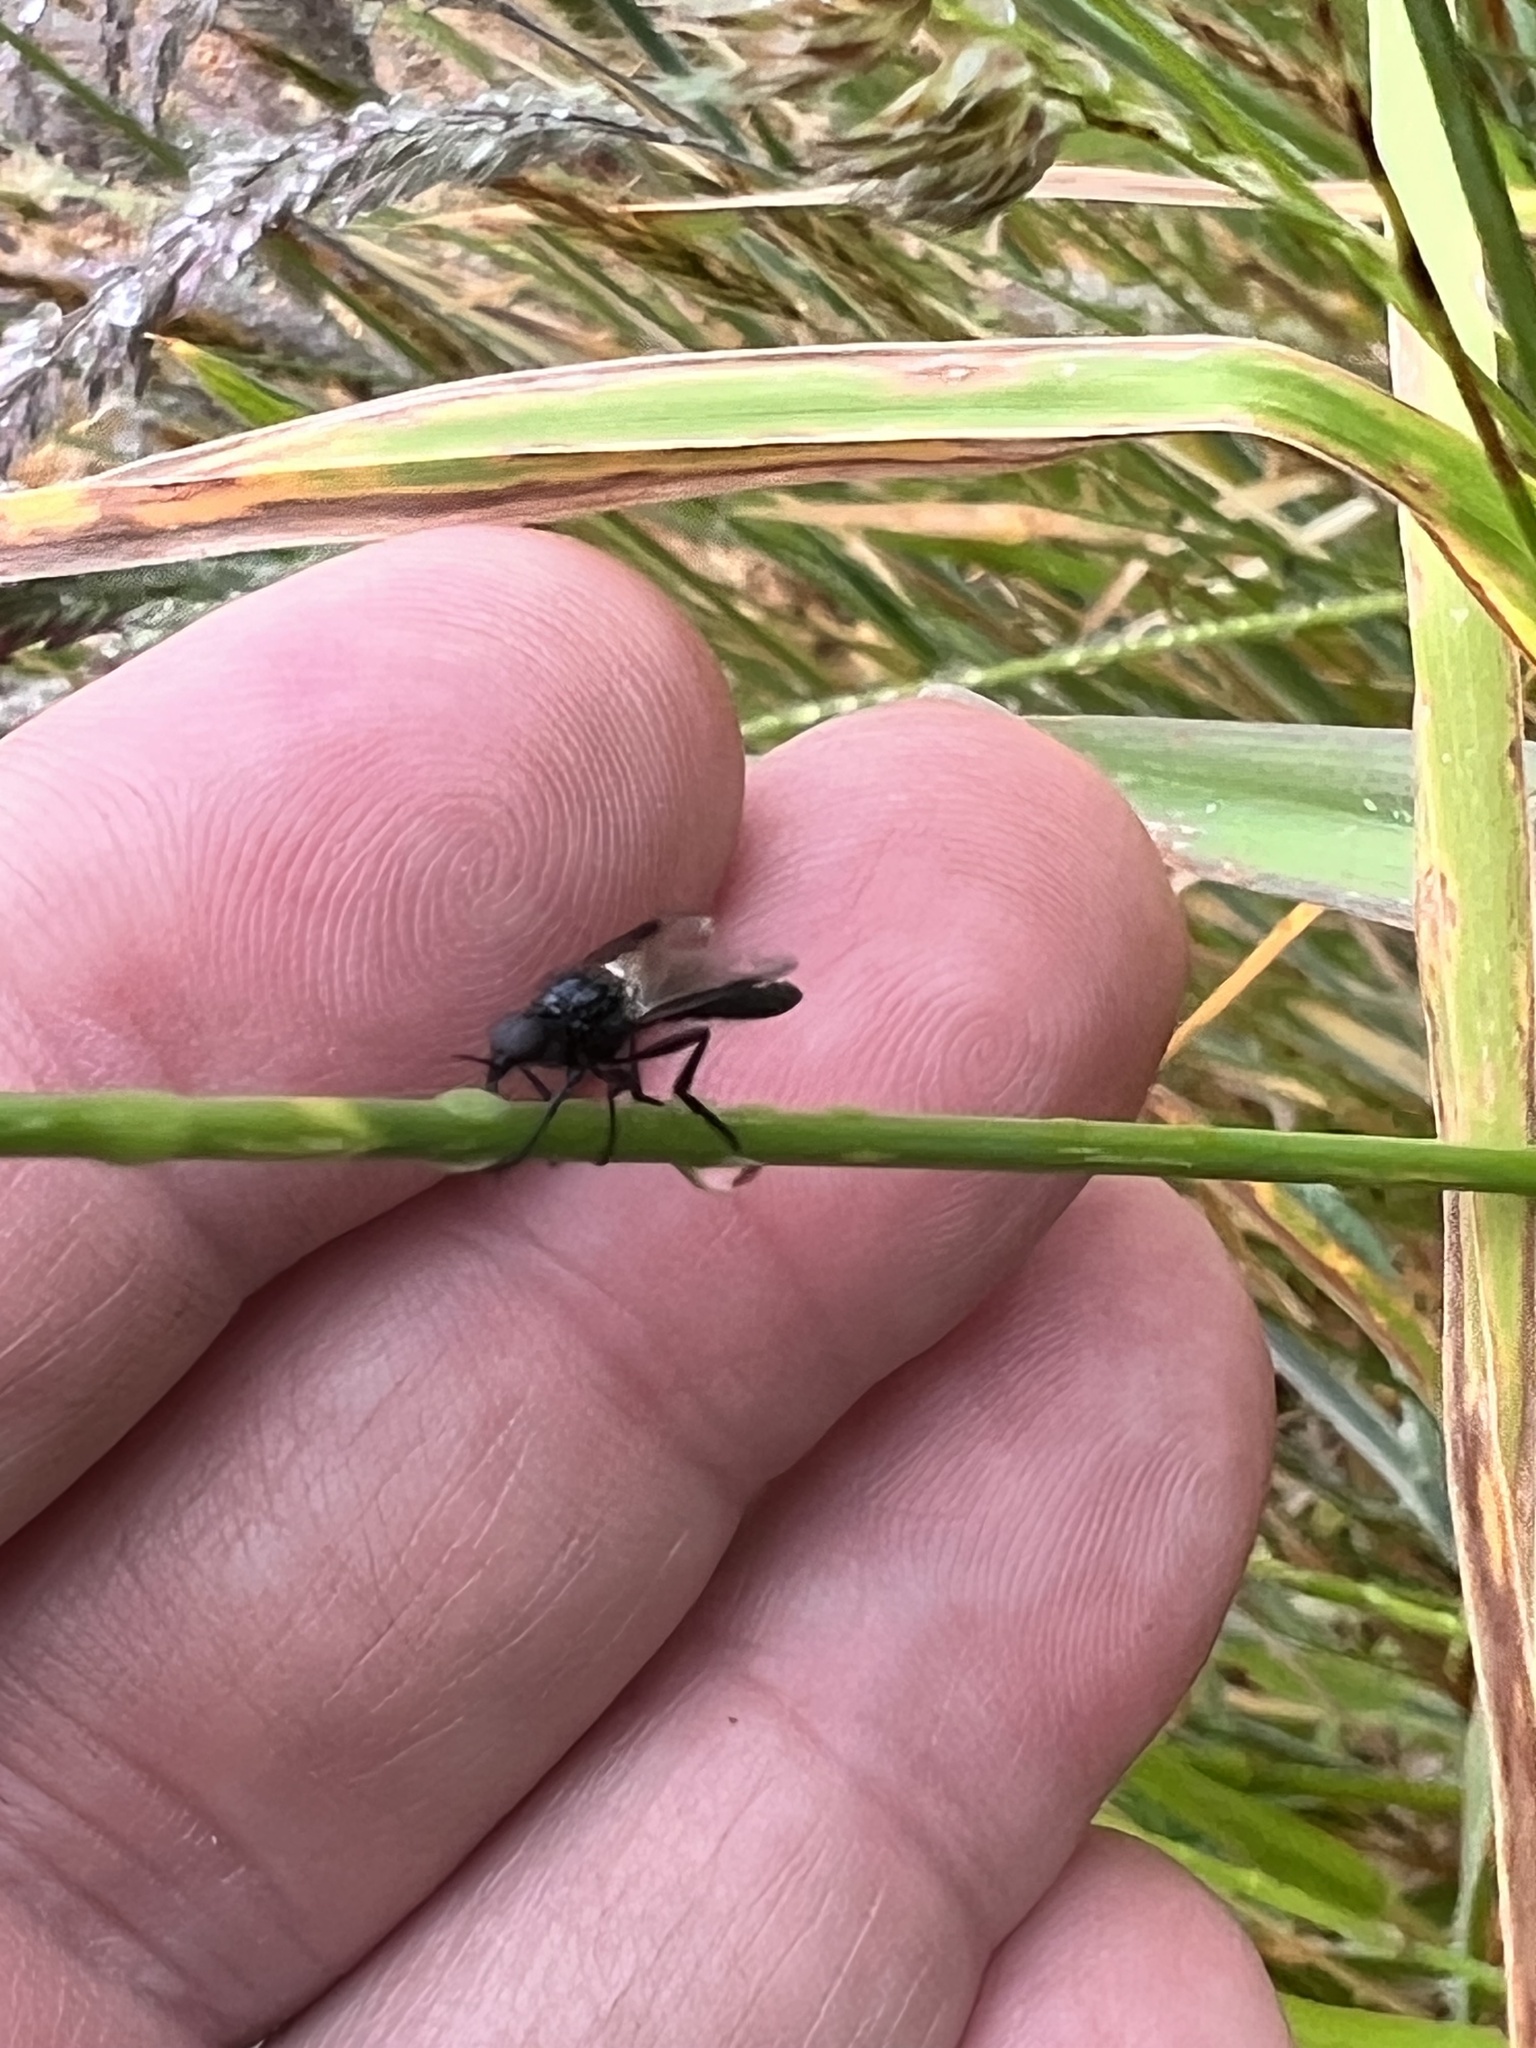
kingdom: Animalia
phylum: Arthropoda
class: Insecta
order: Diptera
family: Bibionidae
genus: Dilophus
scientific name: Dilophus nigrostigma
